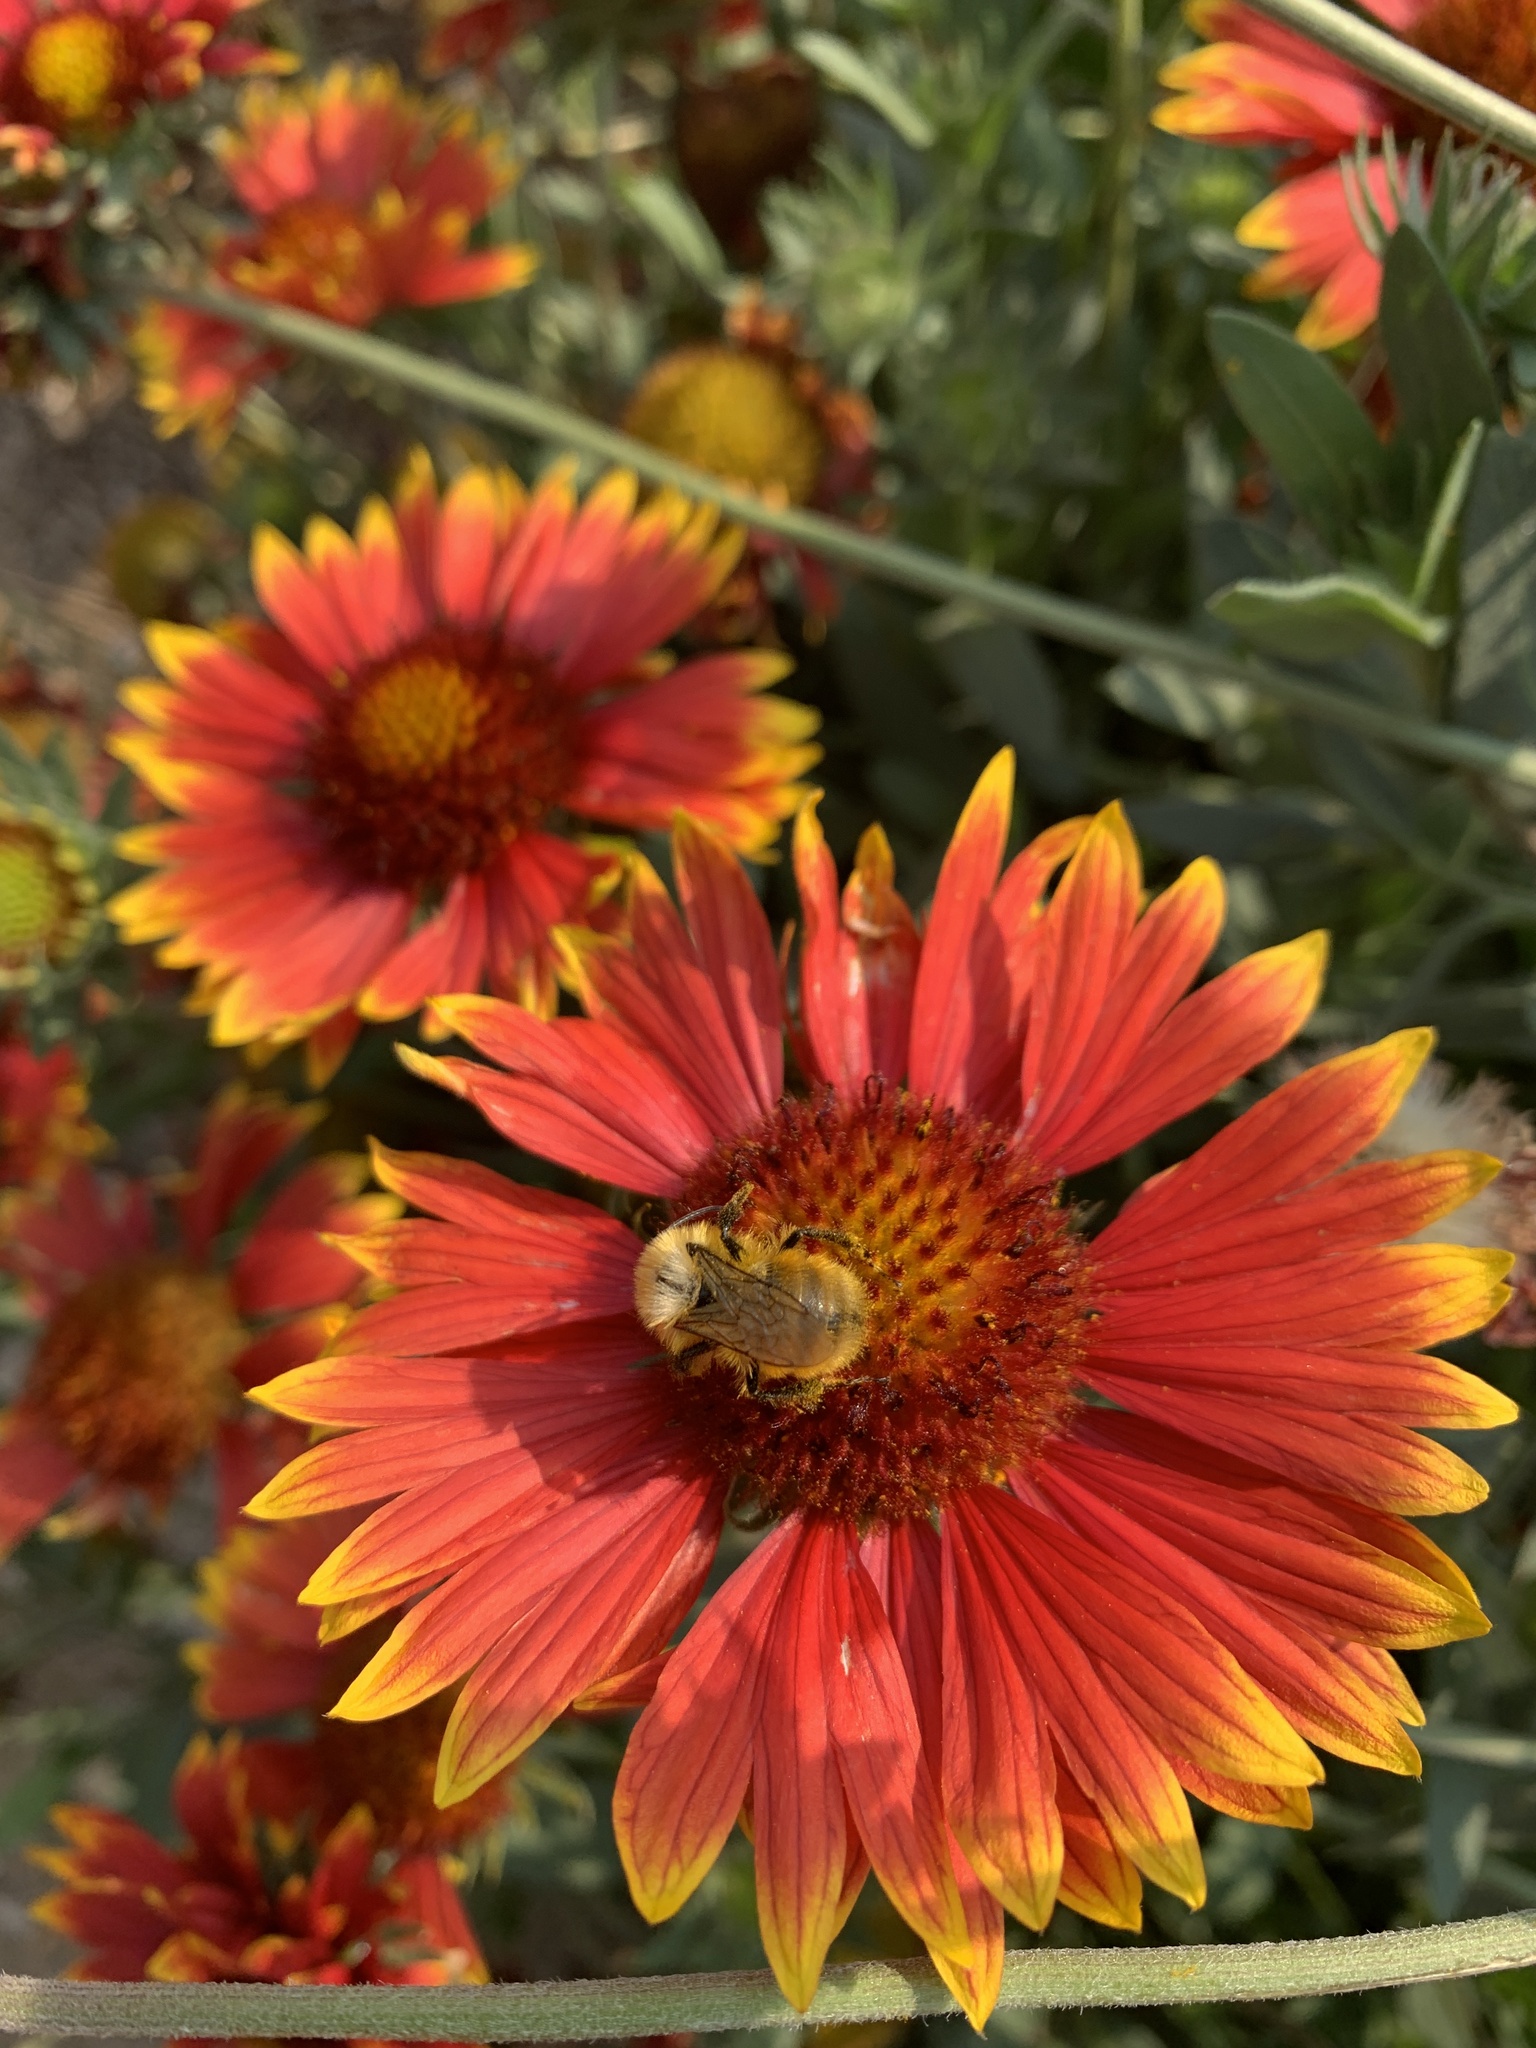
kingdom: Animalia
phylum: Arthropoda
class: Insecta
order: Hymenoptera
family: Apidae
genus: Pyrobombus
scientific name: Pyrobombus
